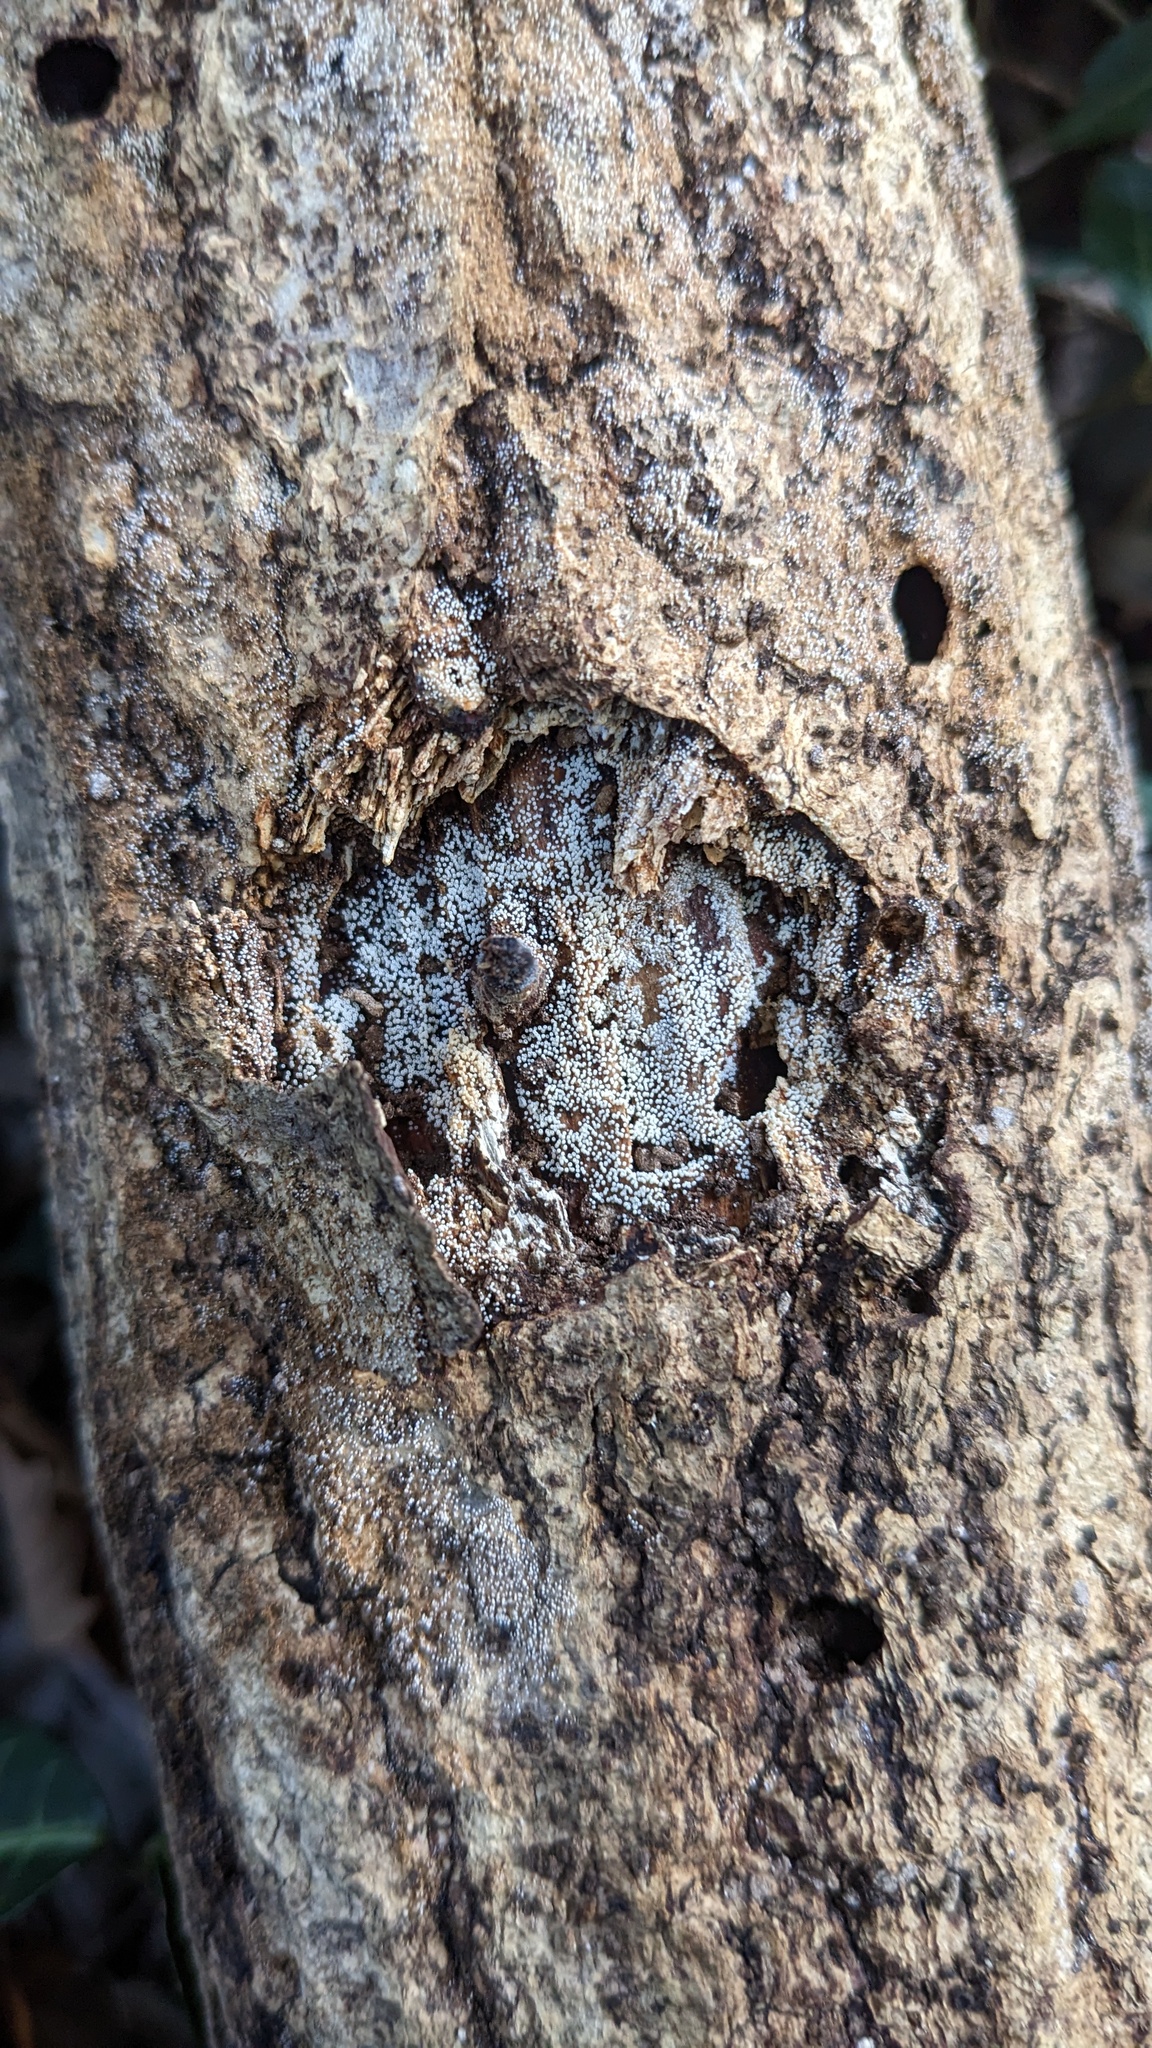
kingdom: Fungi
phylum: Basidiomycota
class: Agaricomycetes
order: Agaricales
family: Marasmiaceae
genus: Henningsomyces
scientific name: Henningsomyces candidus
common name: White tubelet
